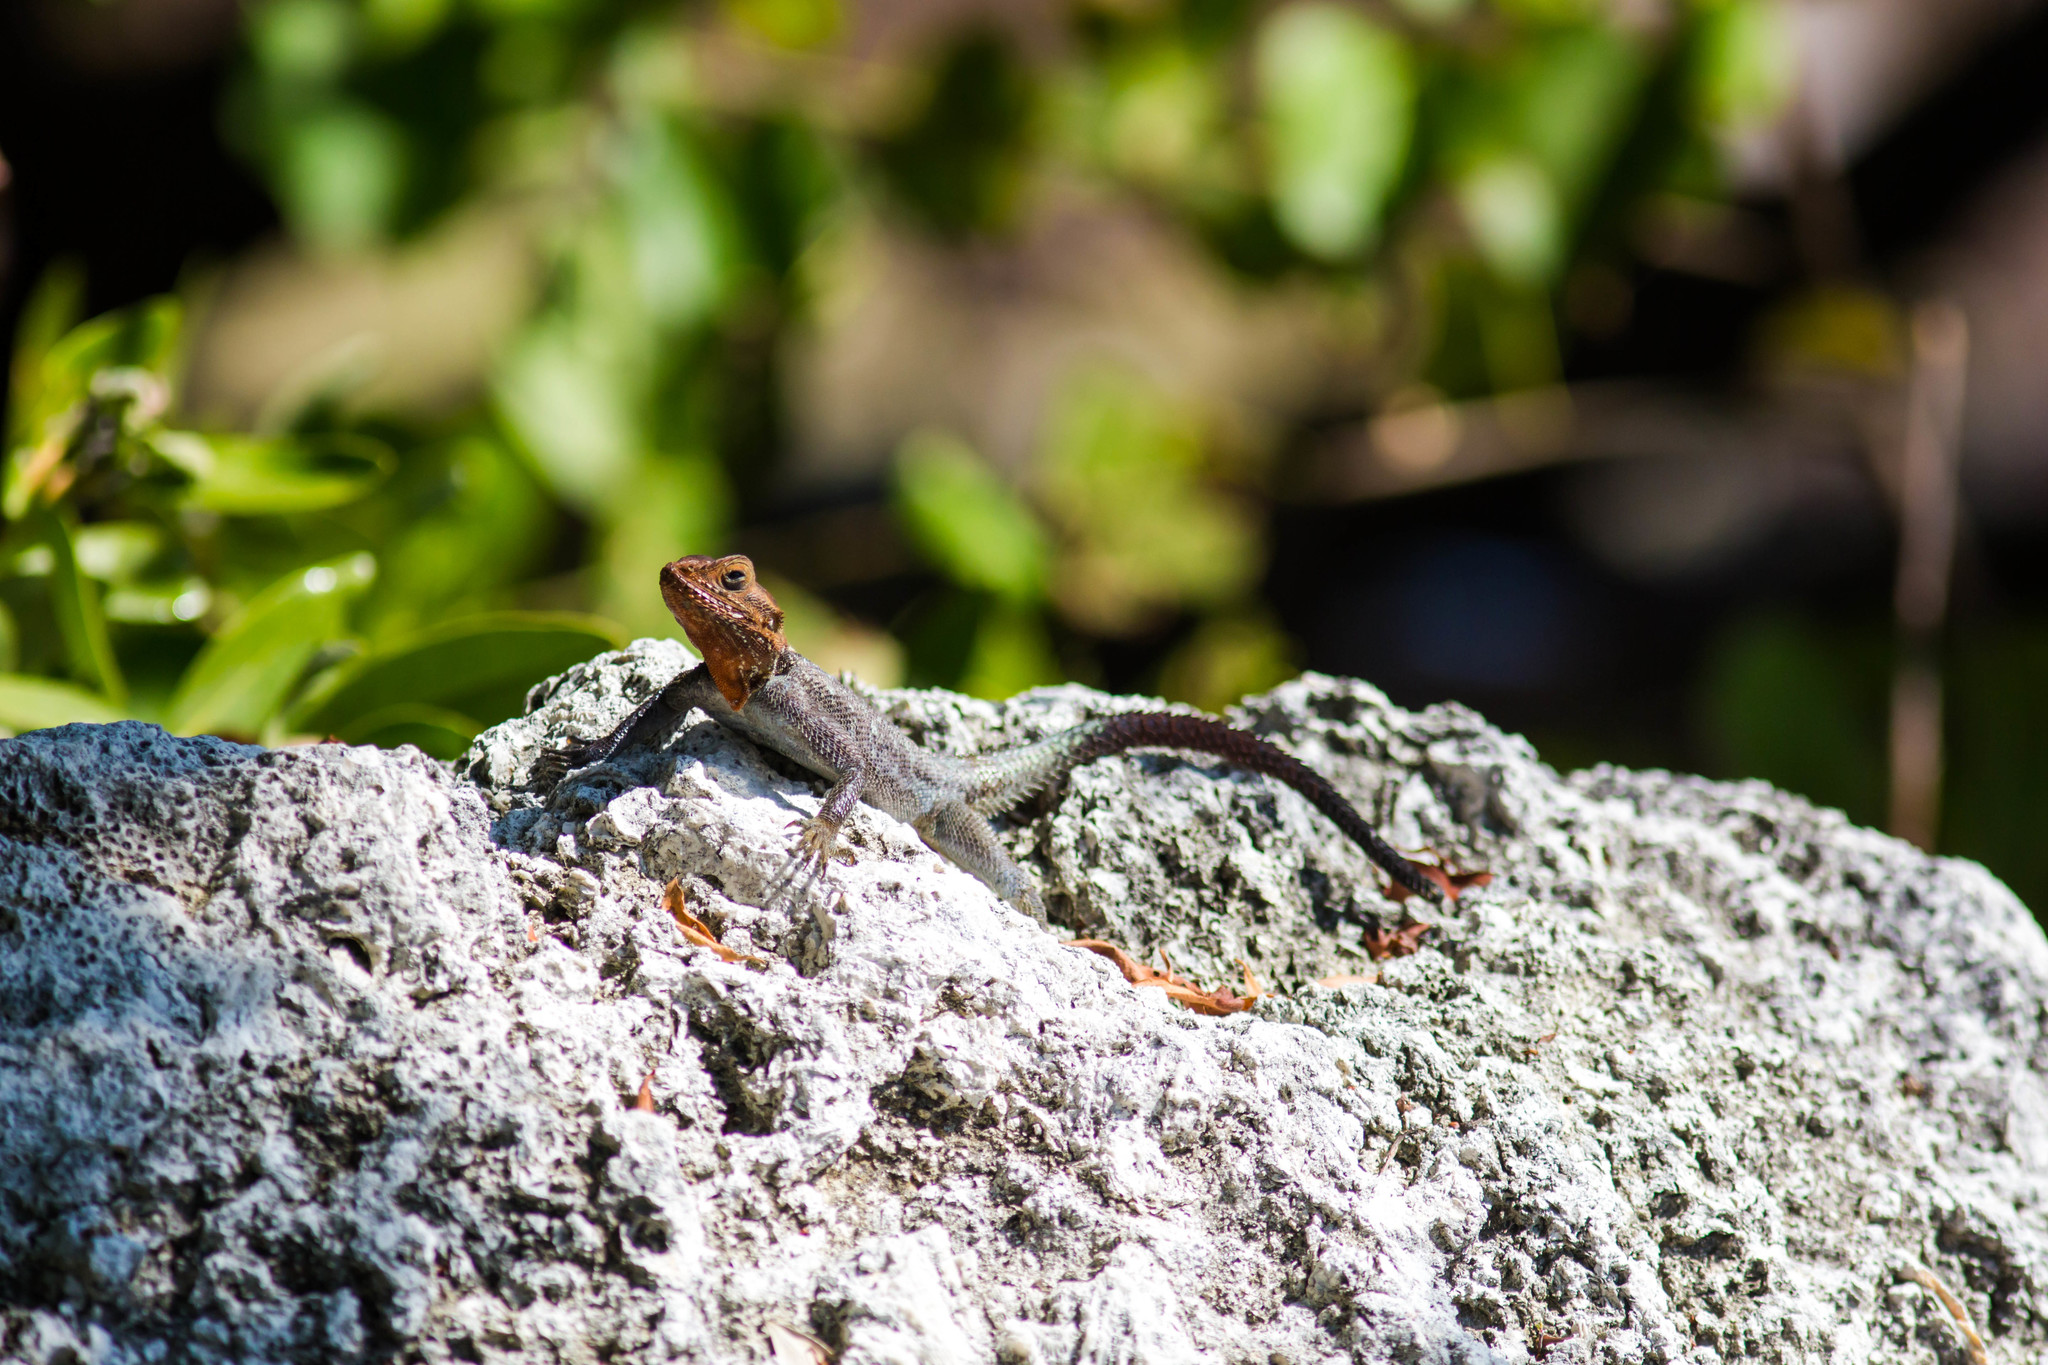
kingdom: Animalia
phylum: Chordata
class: Squamata
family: Agamidae
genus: Agama
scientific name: Agama picticauda
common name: Red-headed agama
